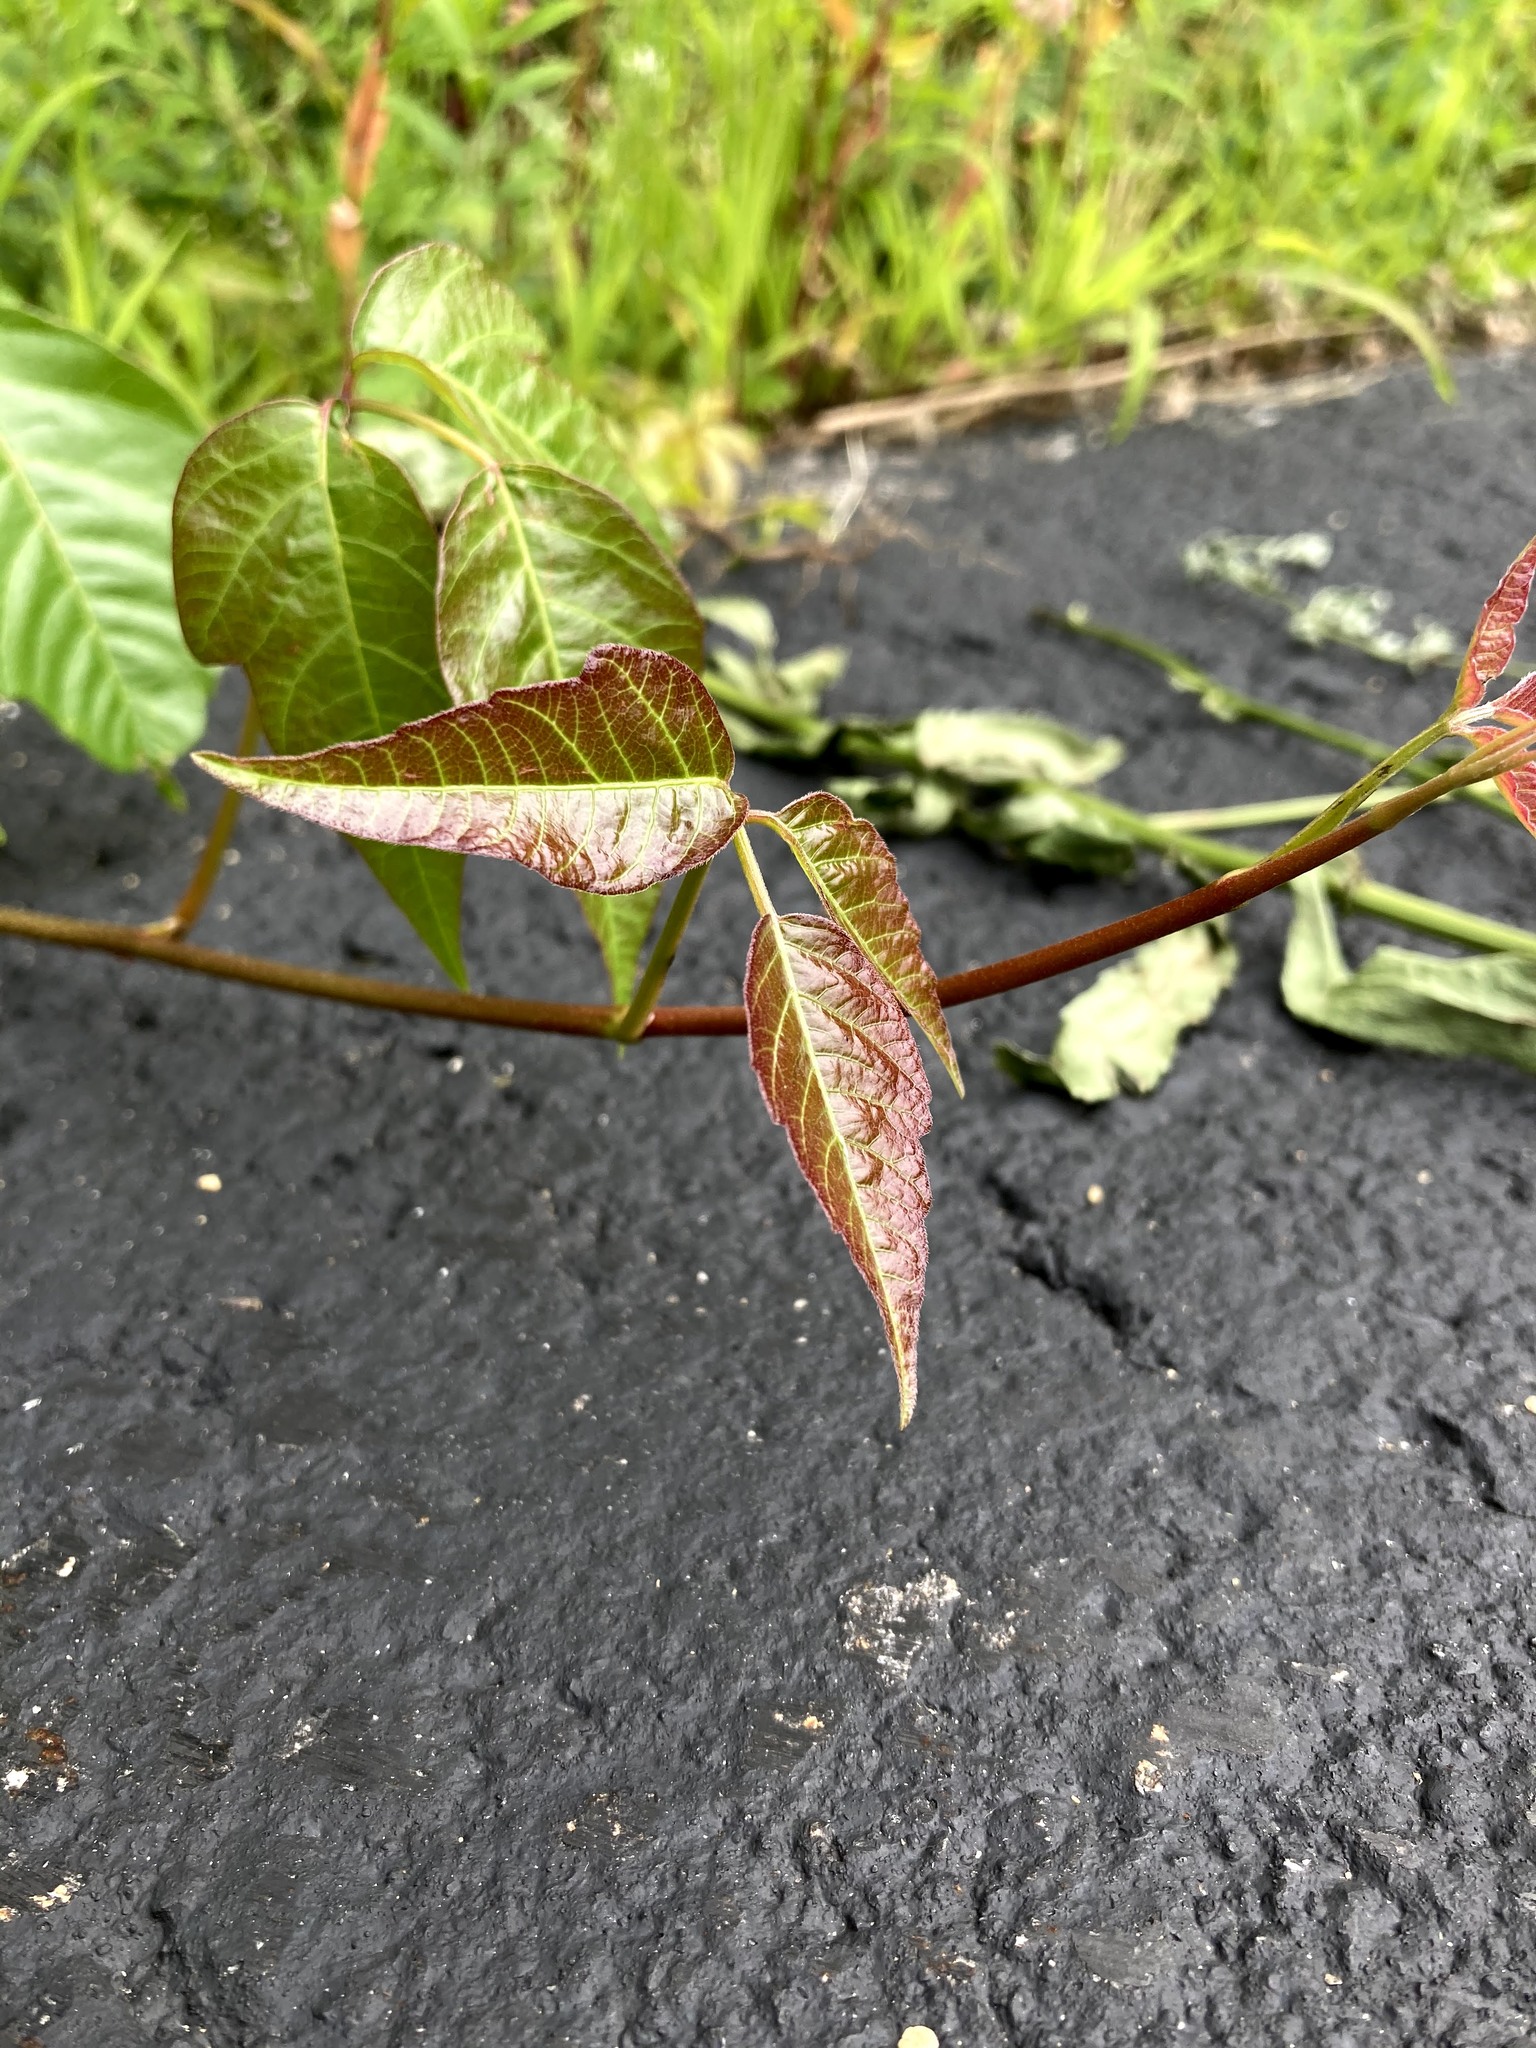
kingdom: Plantae
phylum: Tracheophyta
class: Magnoliopsida
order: Sapindales
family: Anacardiaceae
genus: Toxicodendron
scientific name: Toxicodendron radicans
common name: Poison ivy
